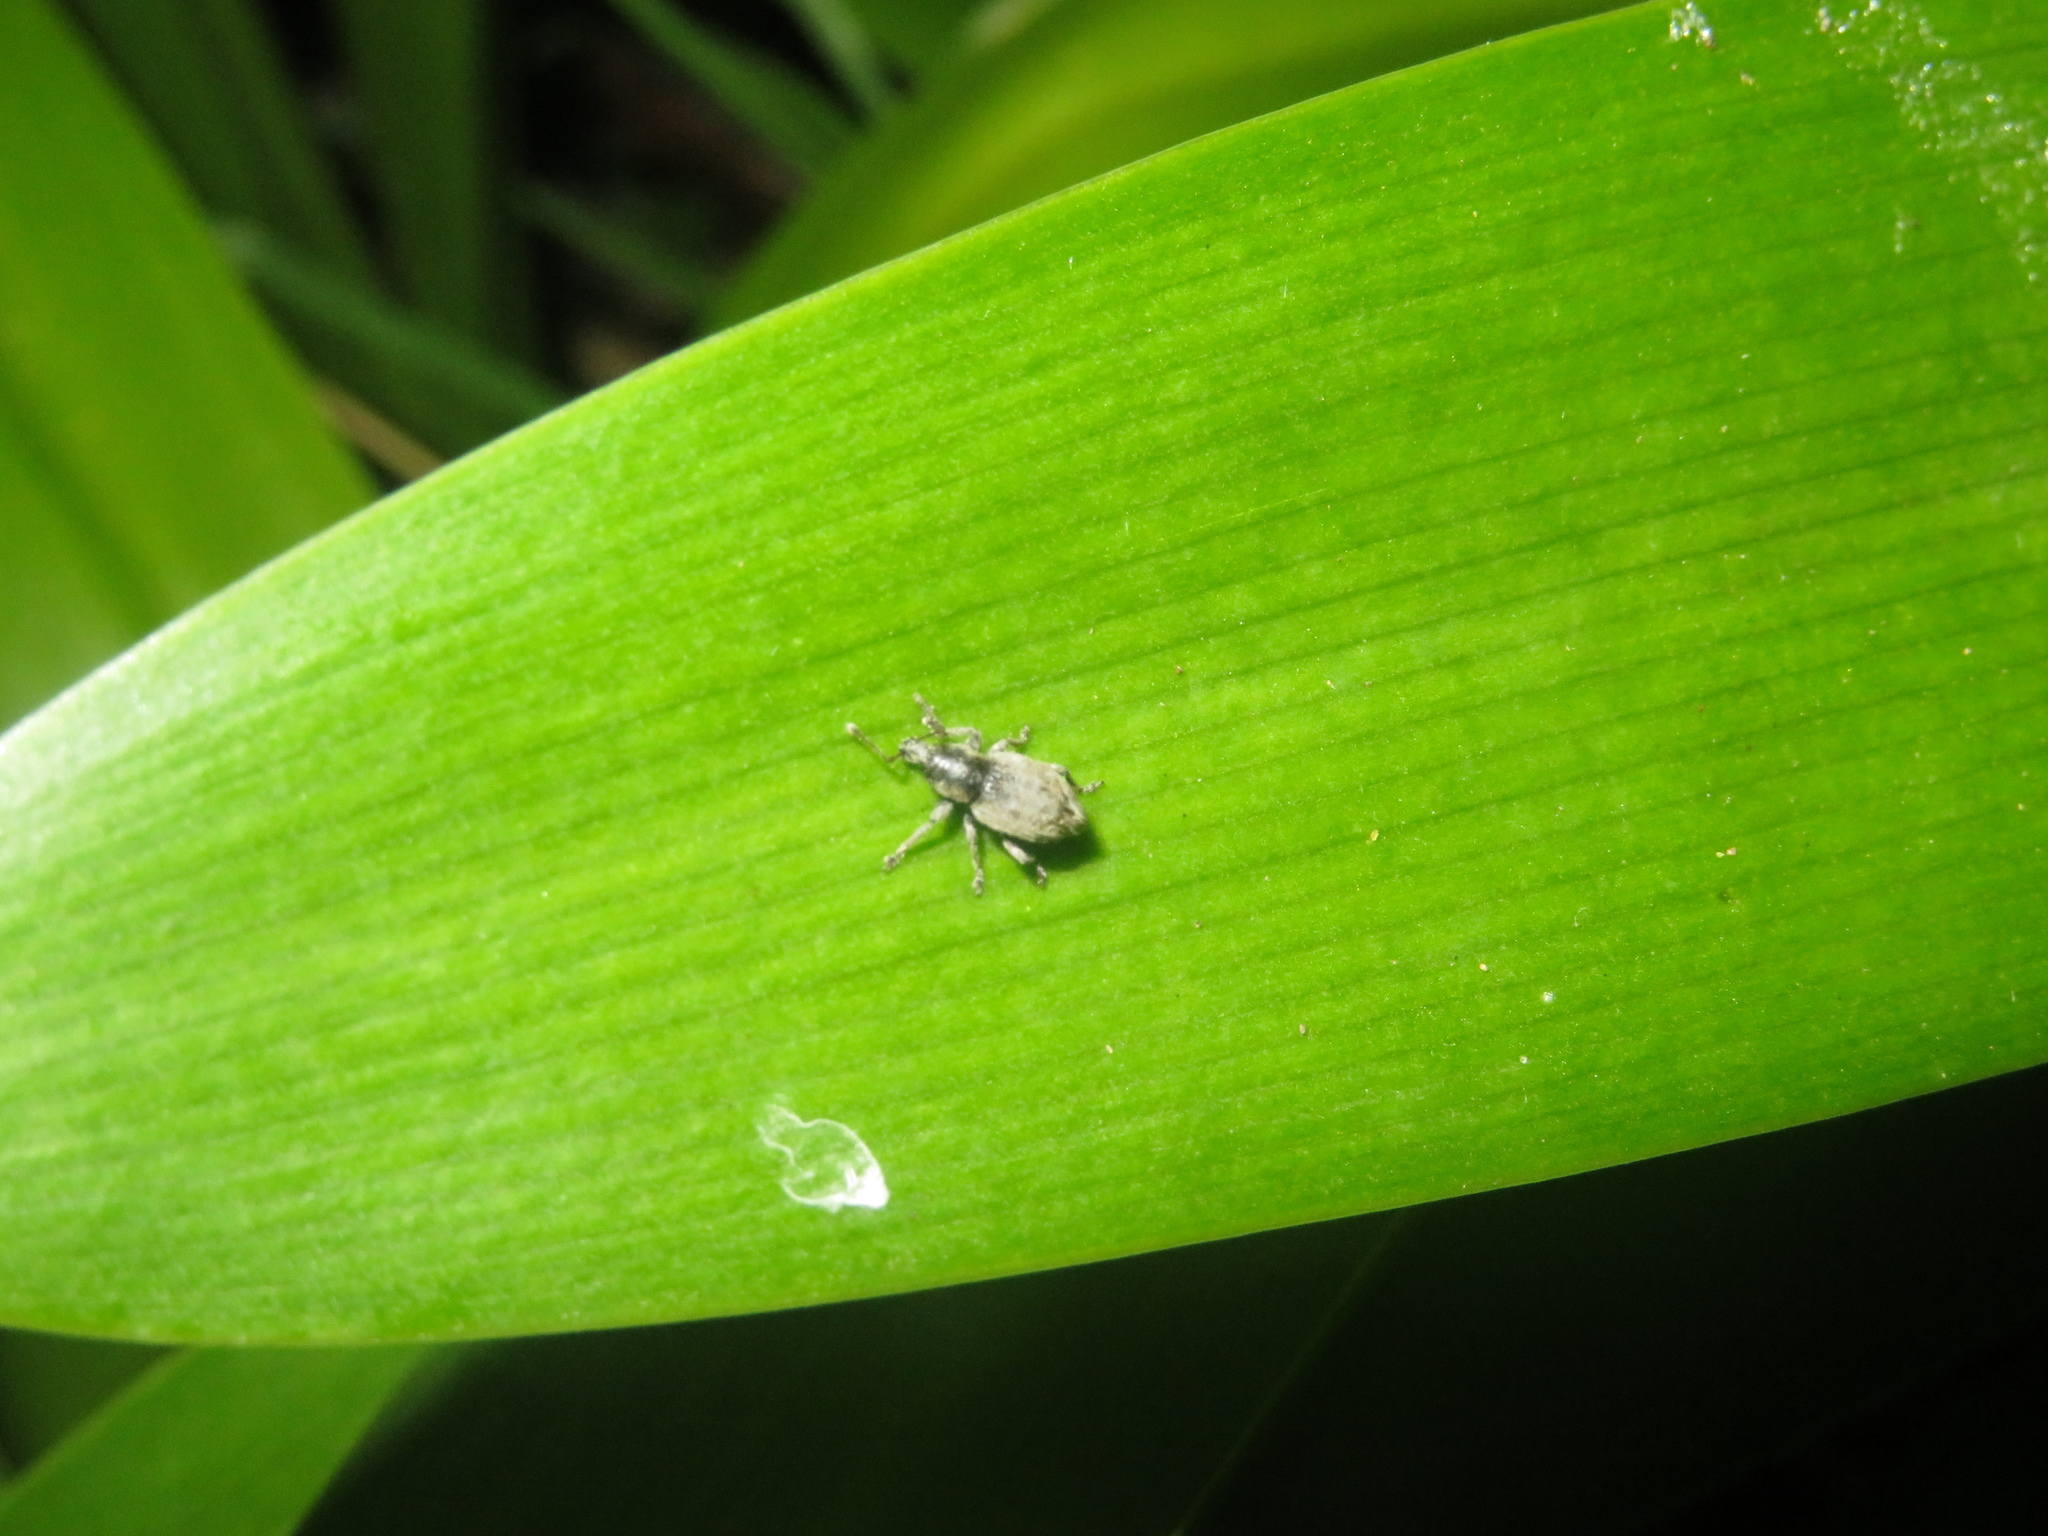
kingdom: Animalia
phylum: Arthropoda
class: Insecta
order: Coleoptera
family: Curculionidae
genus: Chalepistes
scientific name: Chalepistes compressus
